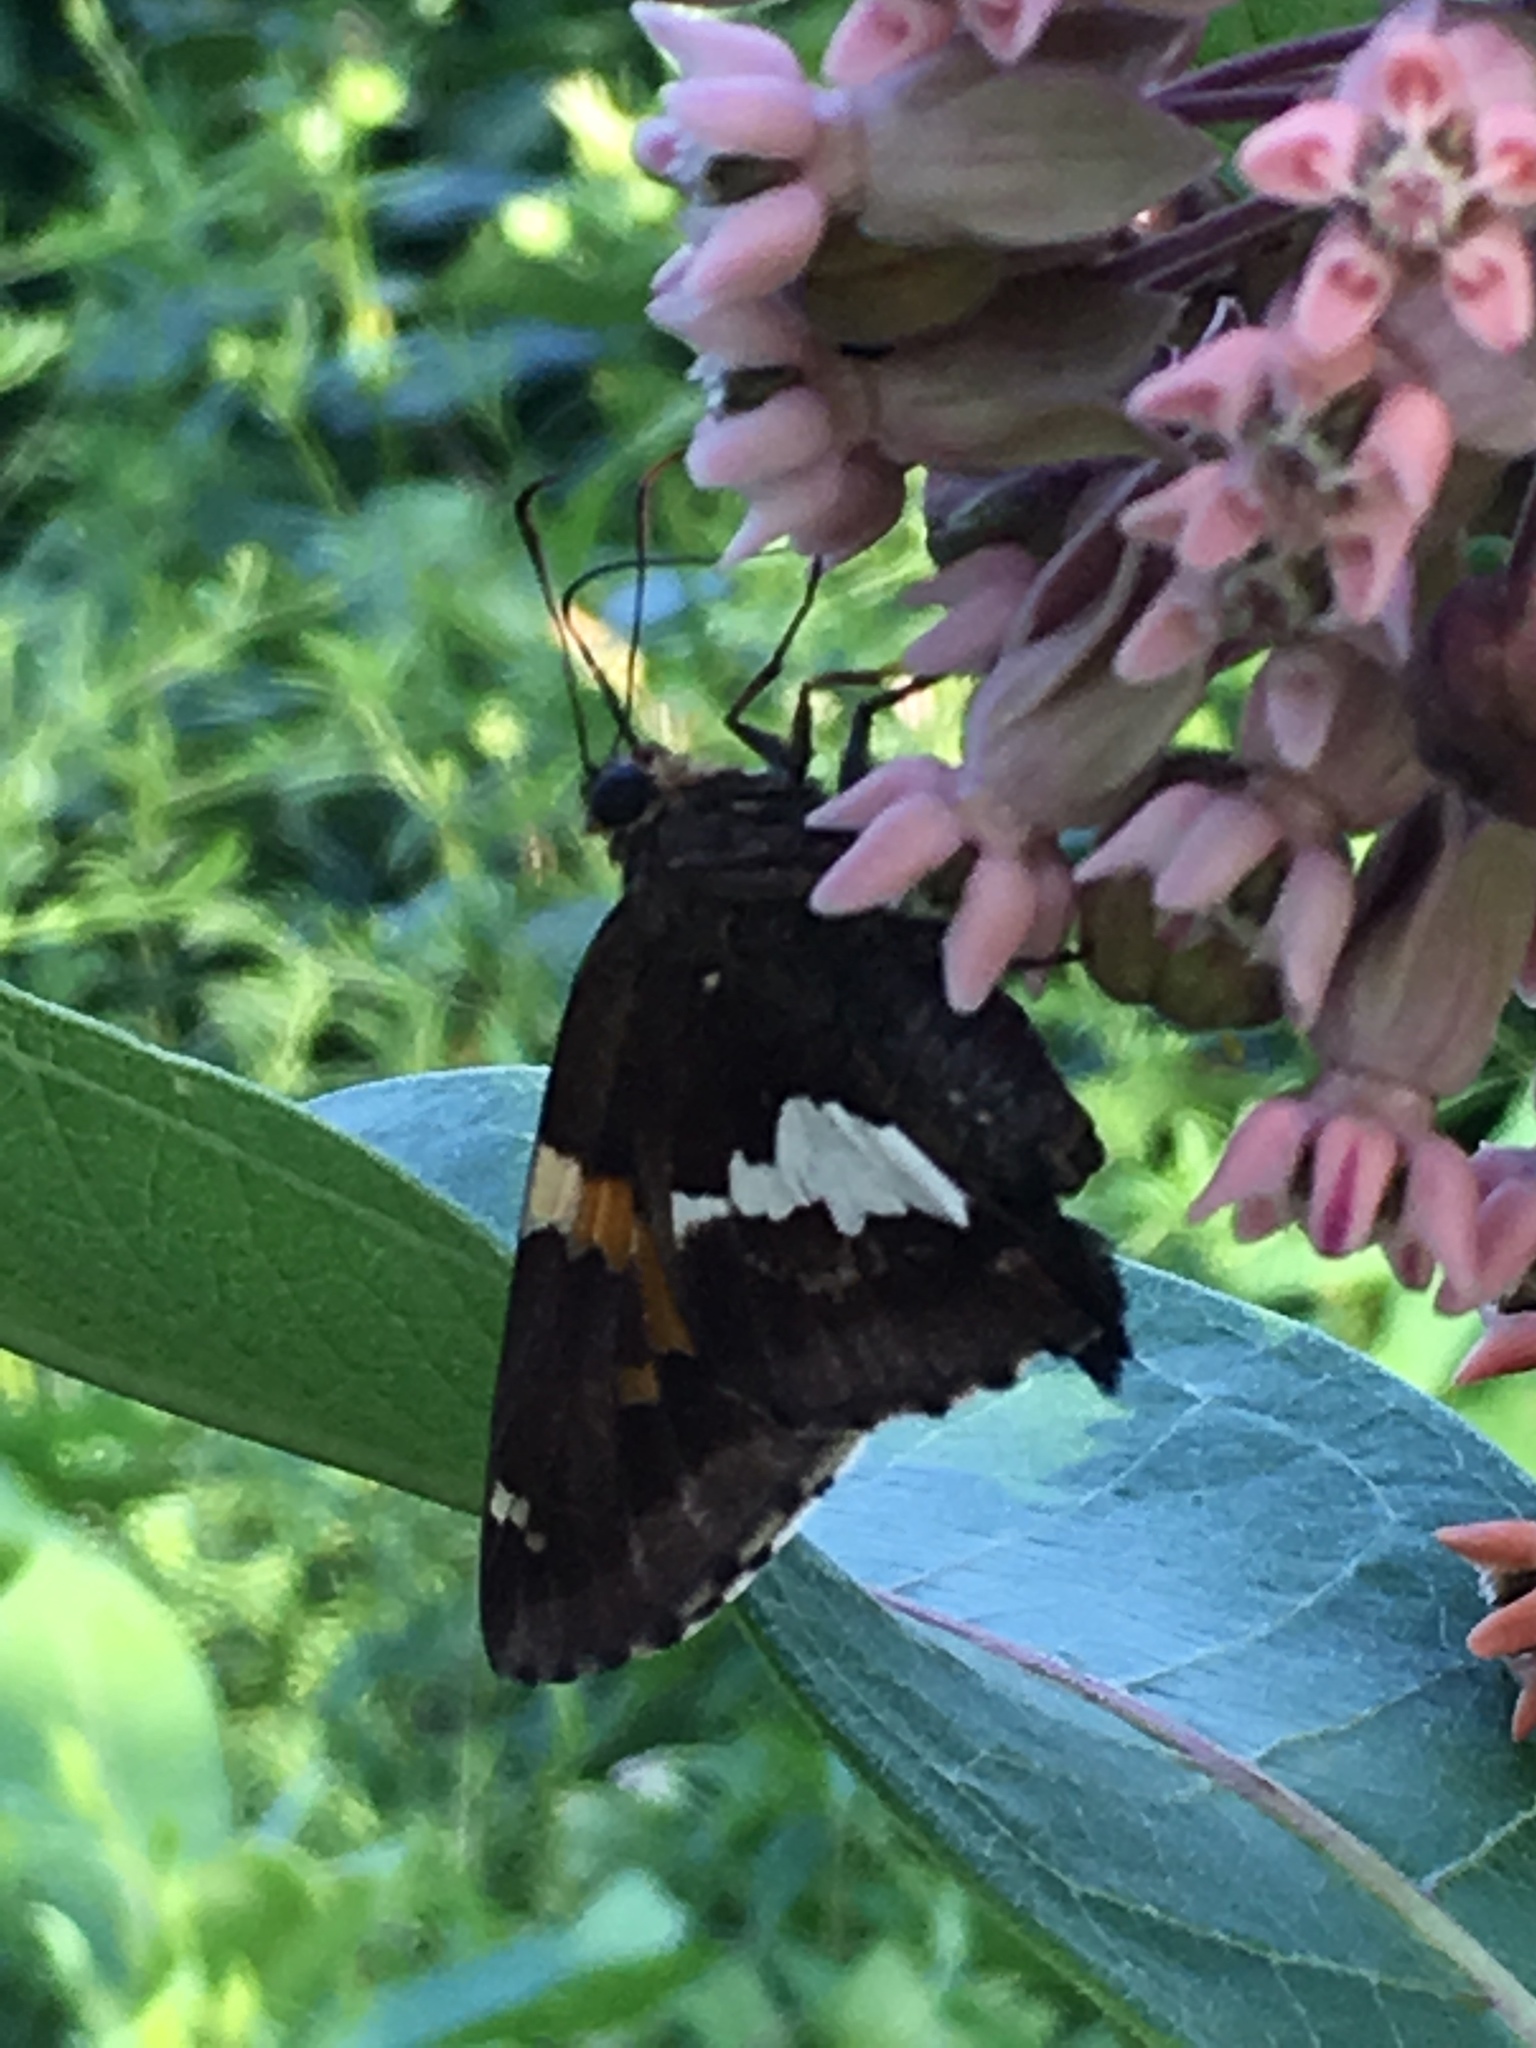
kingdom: Animalia
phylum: Arthropoda
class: Insecta
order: Lepidoptera
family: Hesperiidae
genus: Epargyreus
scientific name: Epargyreus clarus
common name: Silver-spotted skipper
